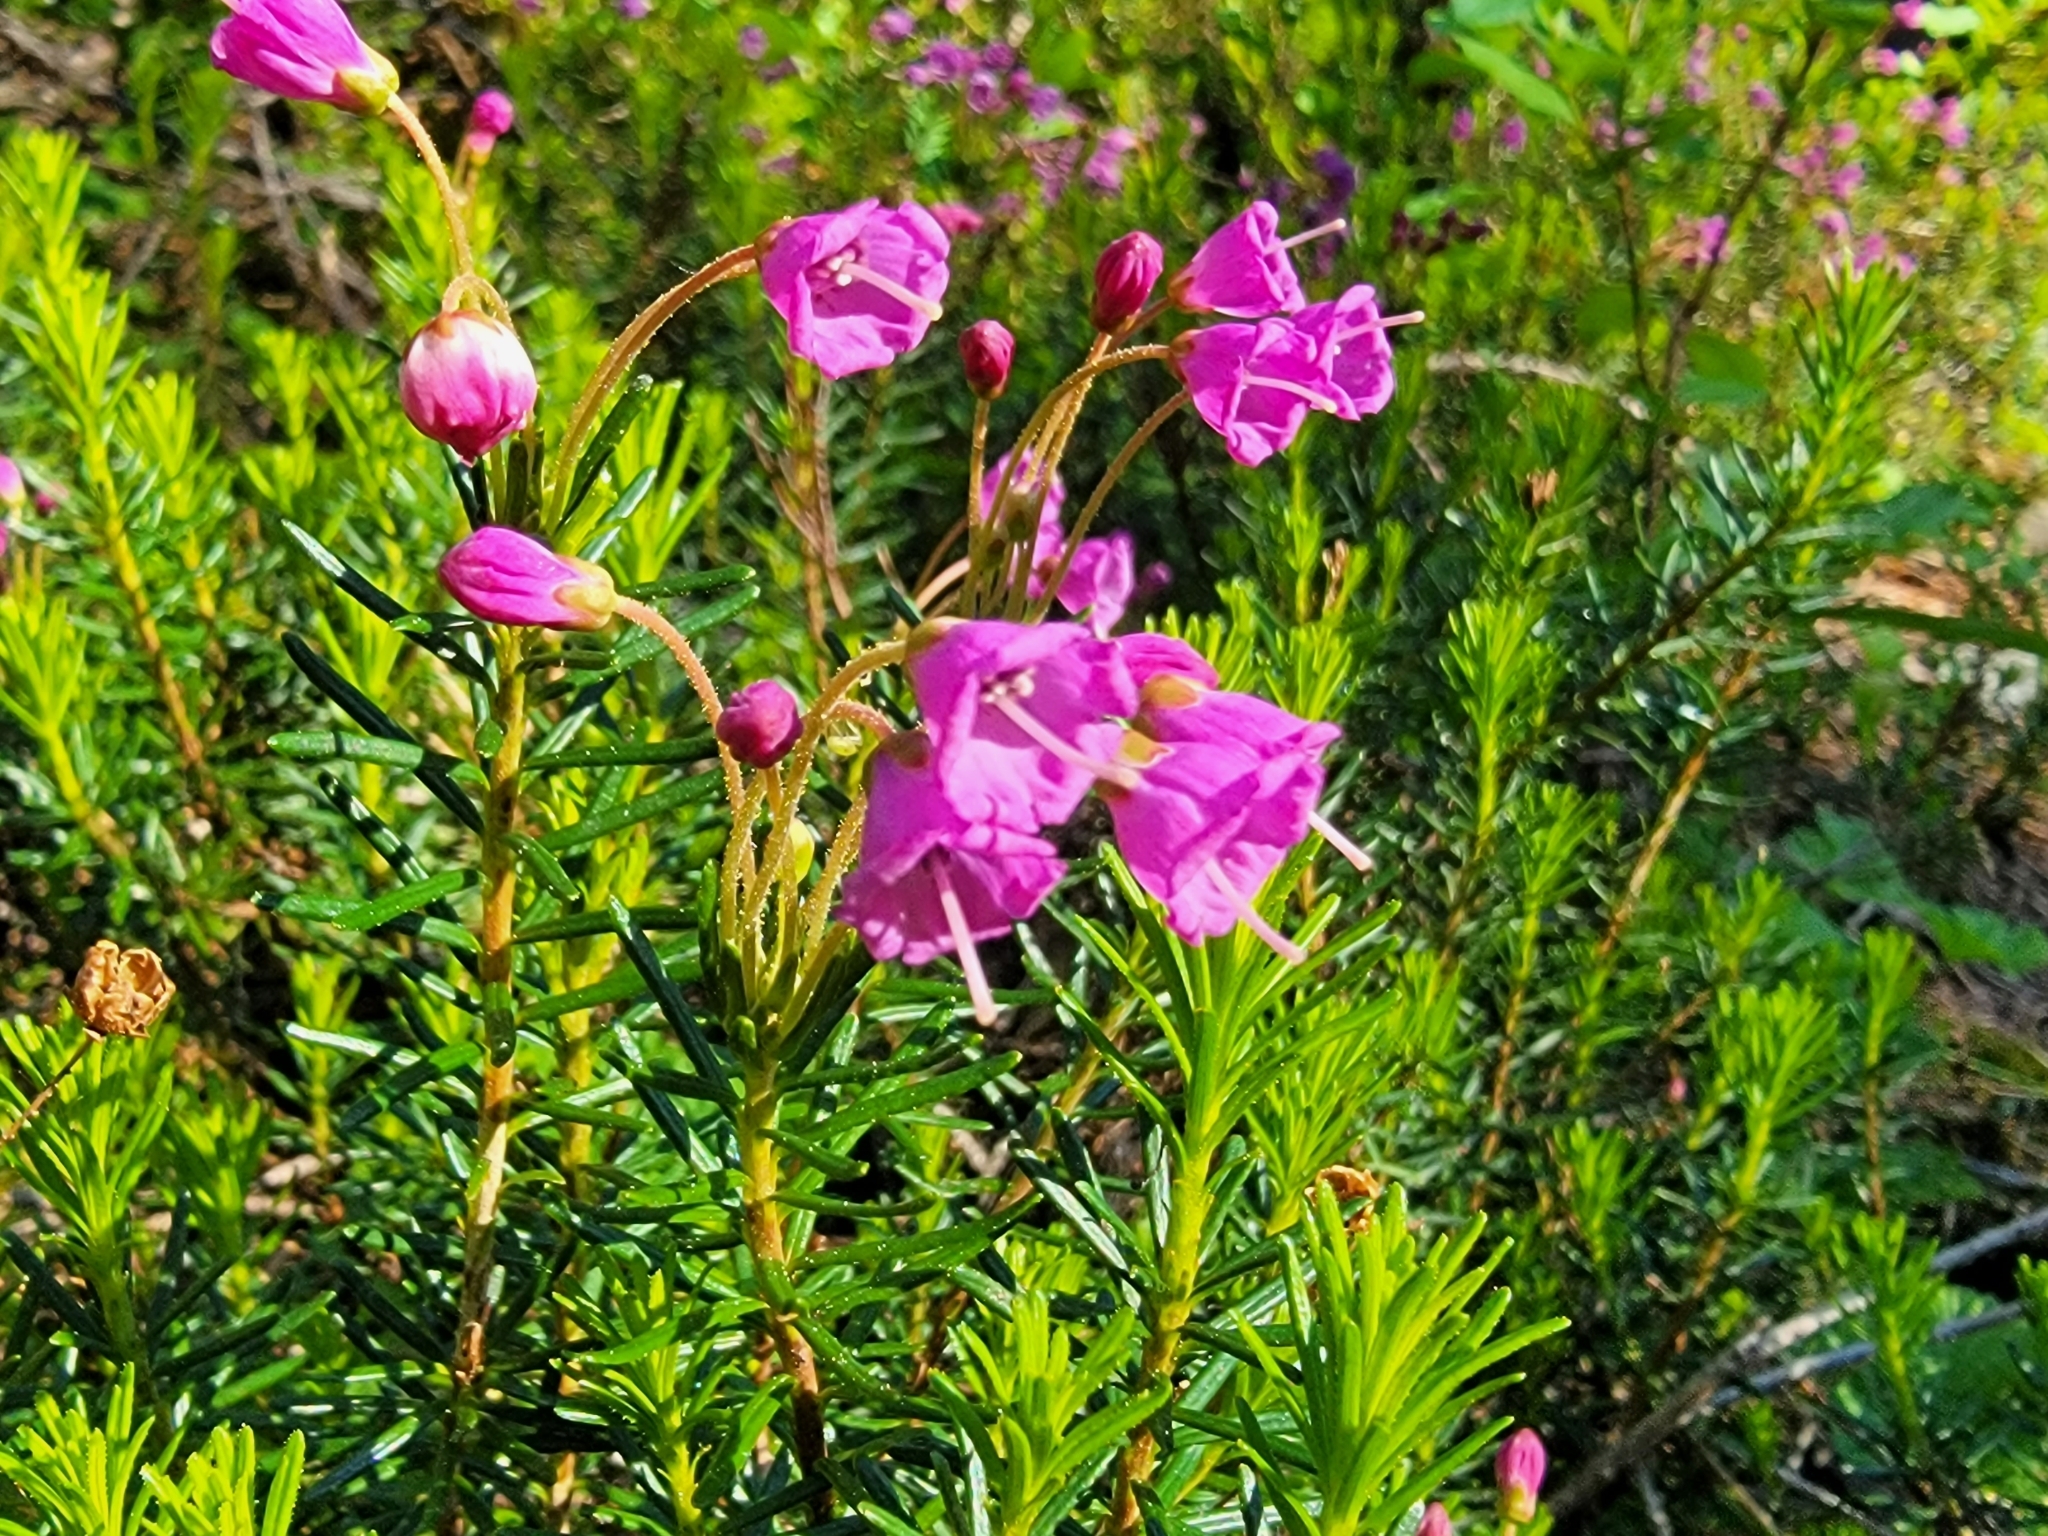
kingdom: Plantae
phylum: Tracheophyta
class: Magnoliopsida
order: Ericales
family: Ericaceae
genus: Phyllodoce
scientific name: Phyllodoce empetriformis
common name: Pink mountain heather
